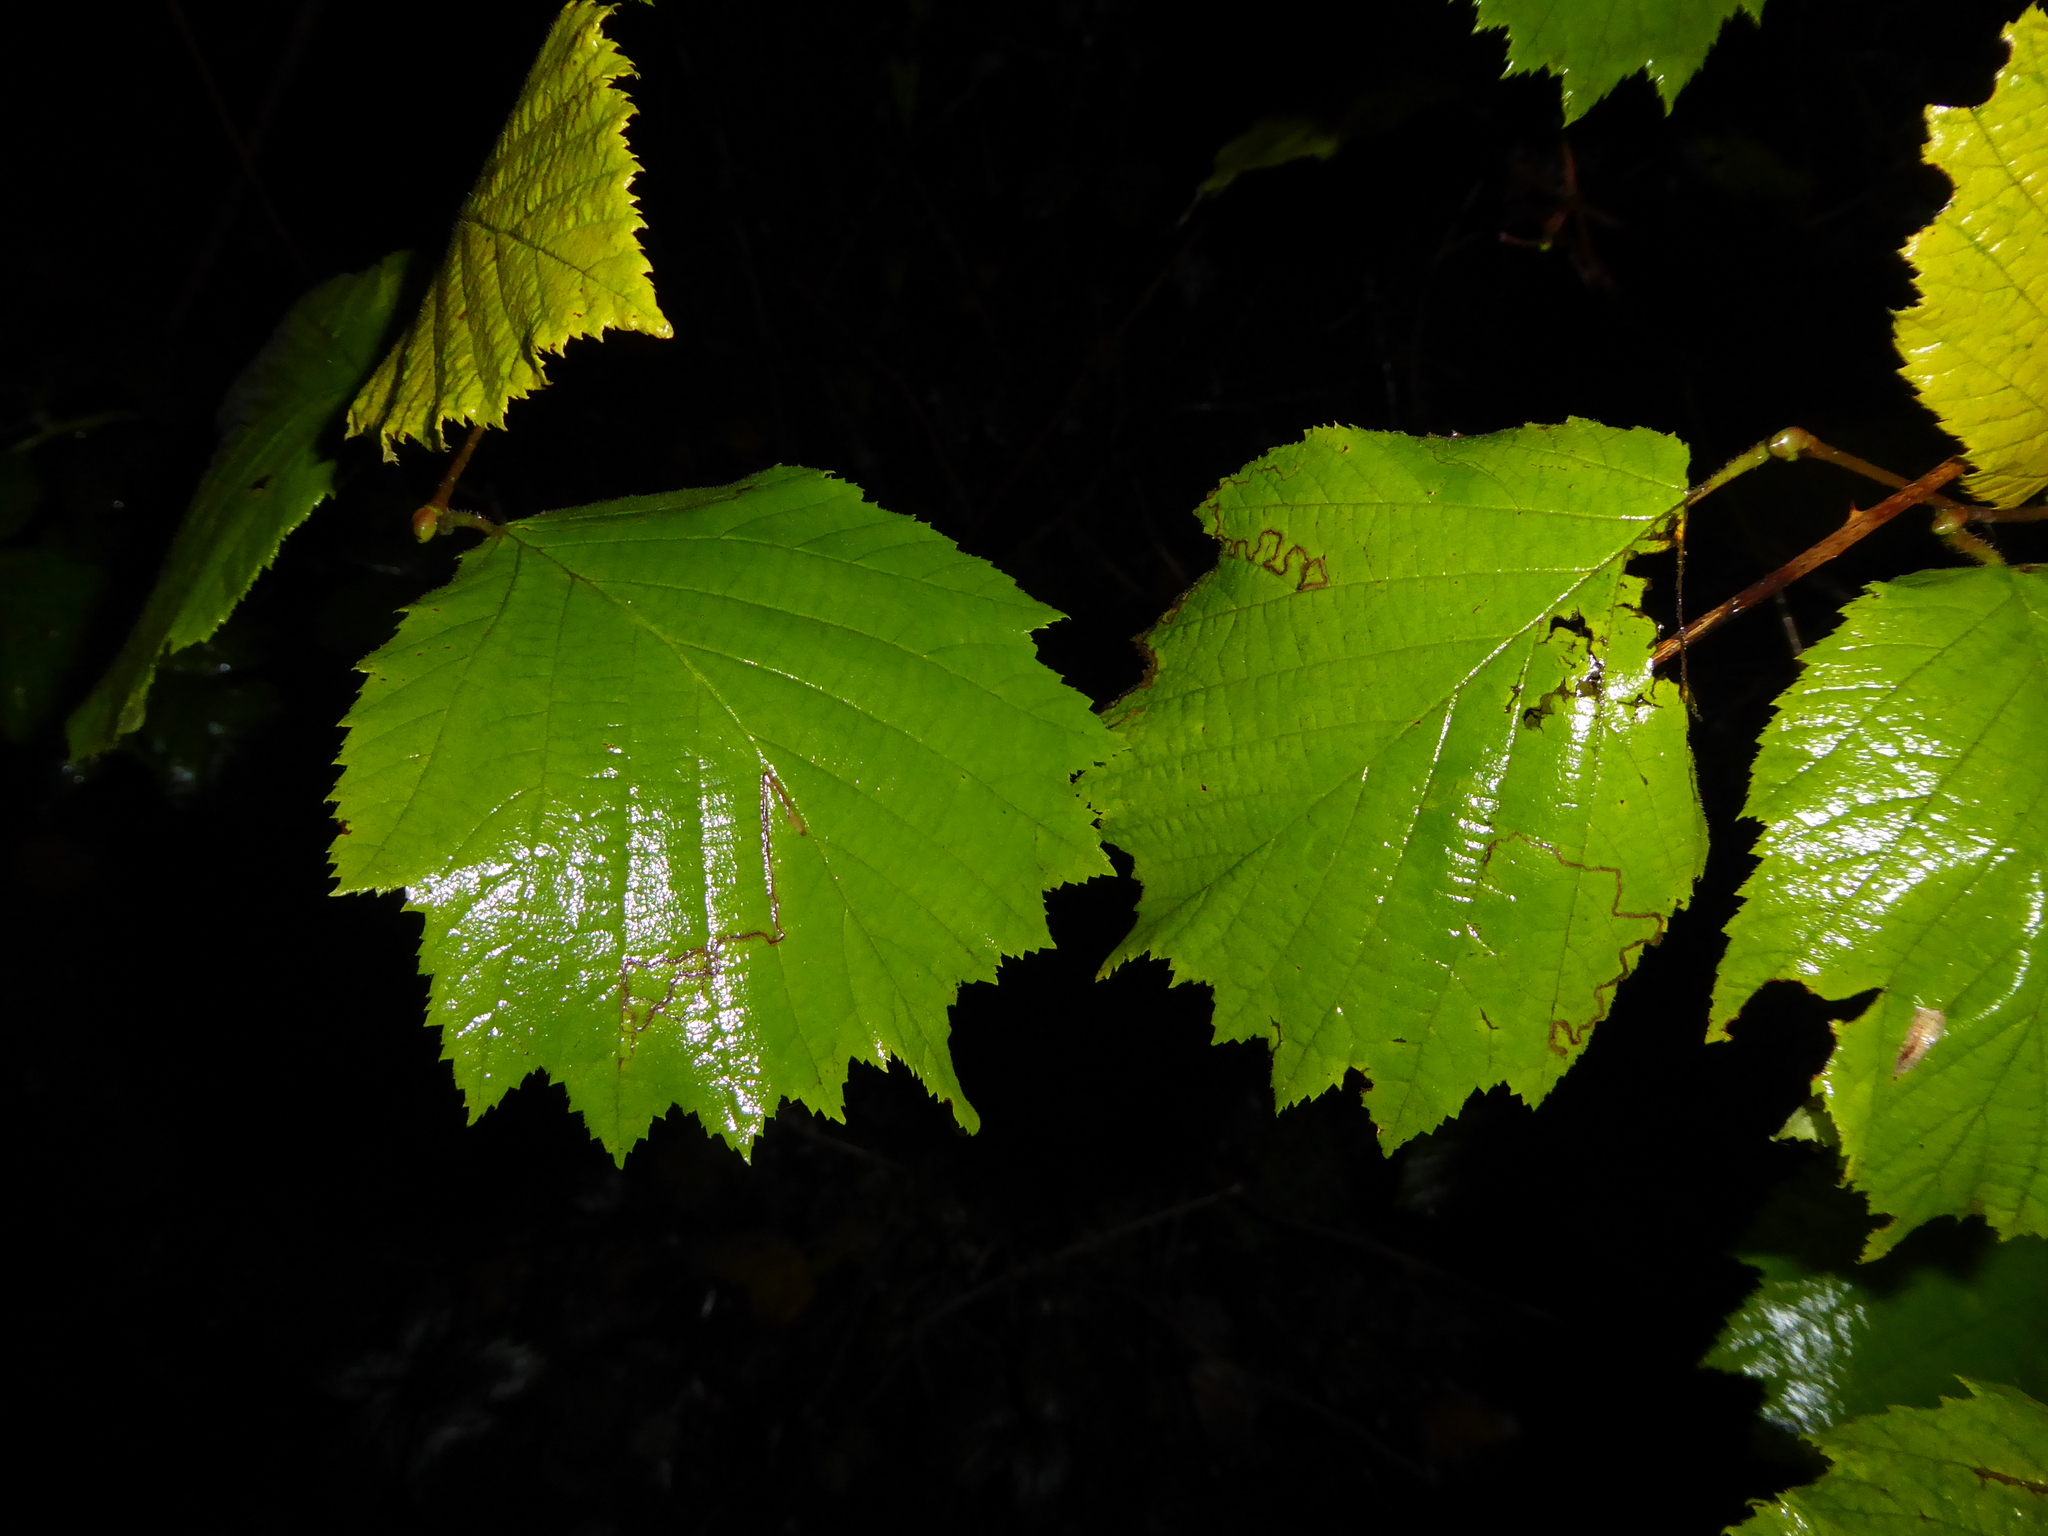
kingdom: Plantae
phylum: Tracheophyta
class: Magnoliopsida
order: Fagales
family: Betulaceae
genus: Corylus
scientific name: Corylus avellana
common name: European hazel
